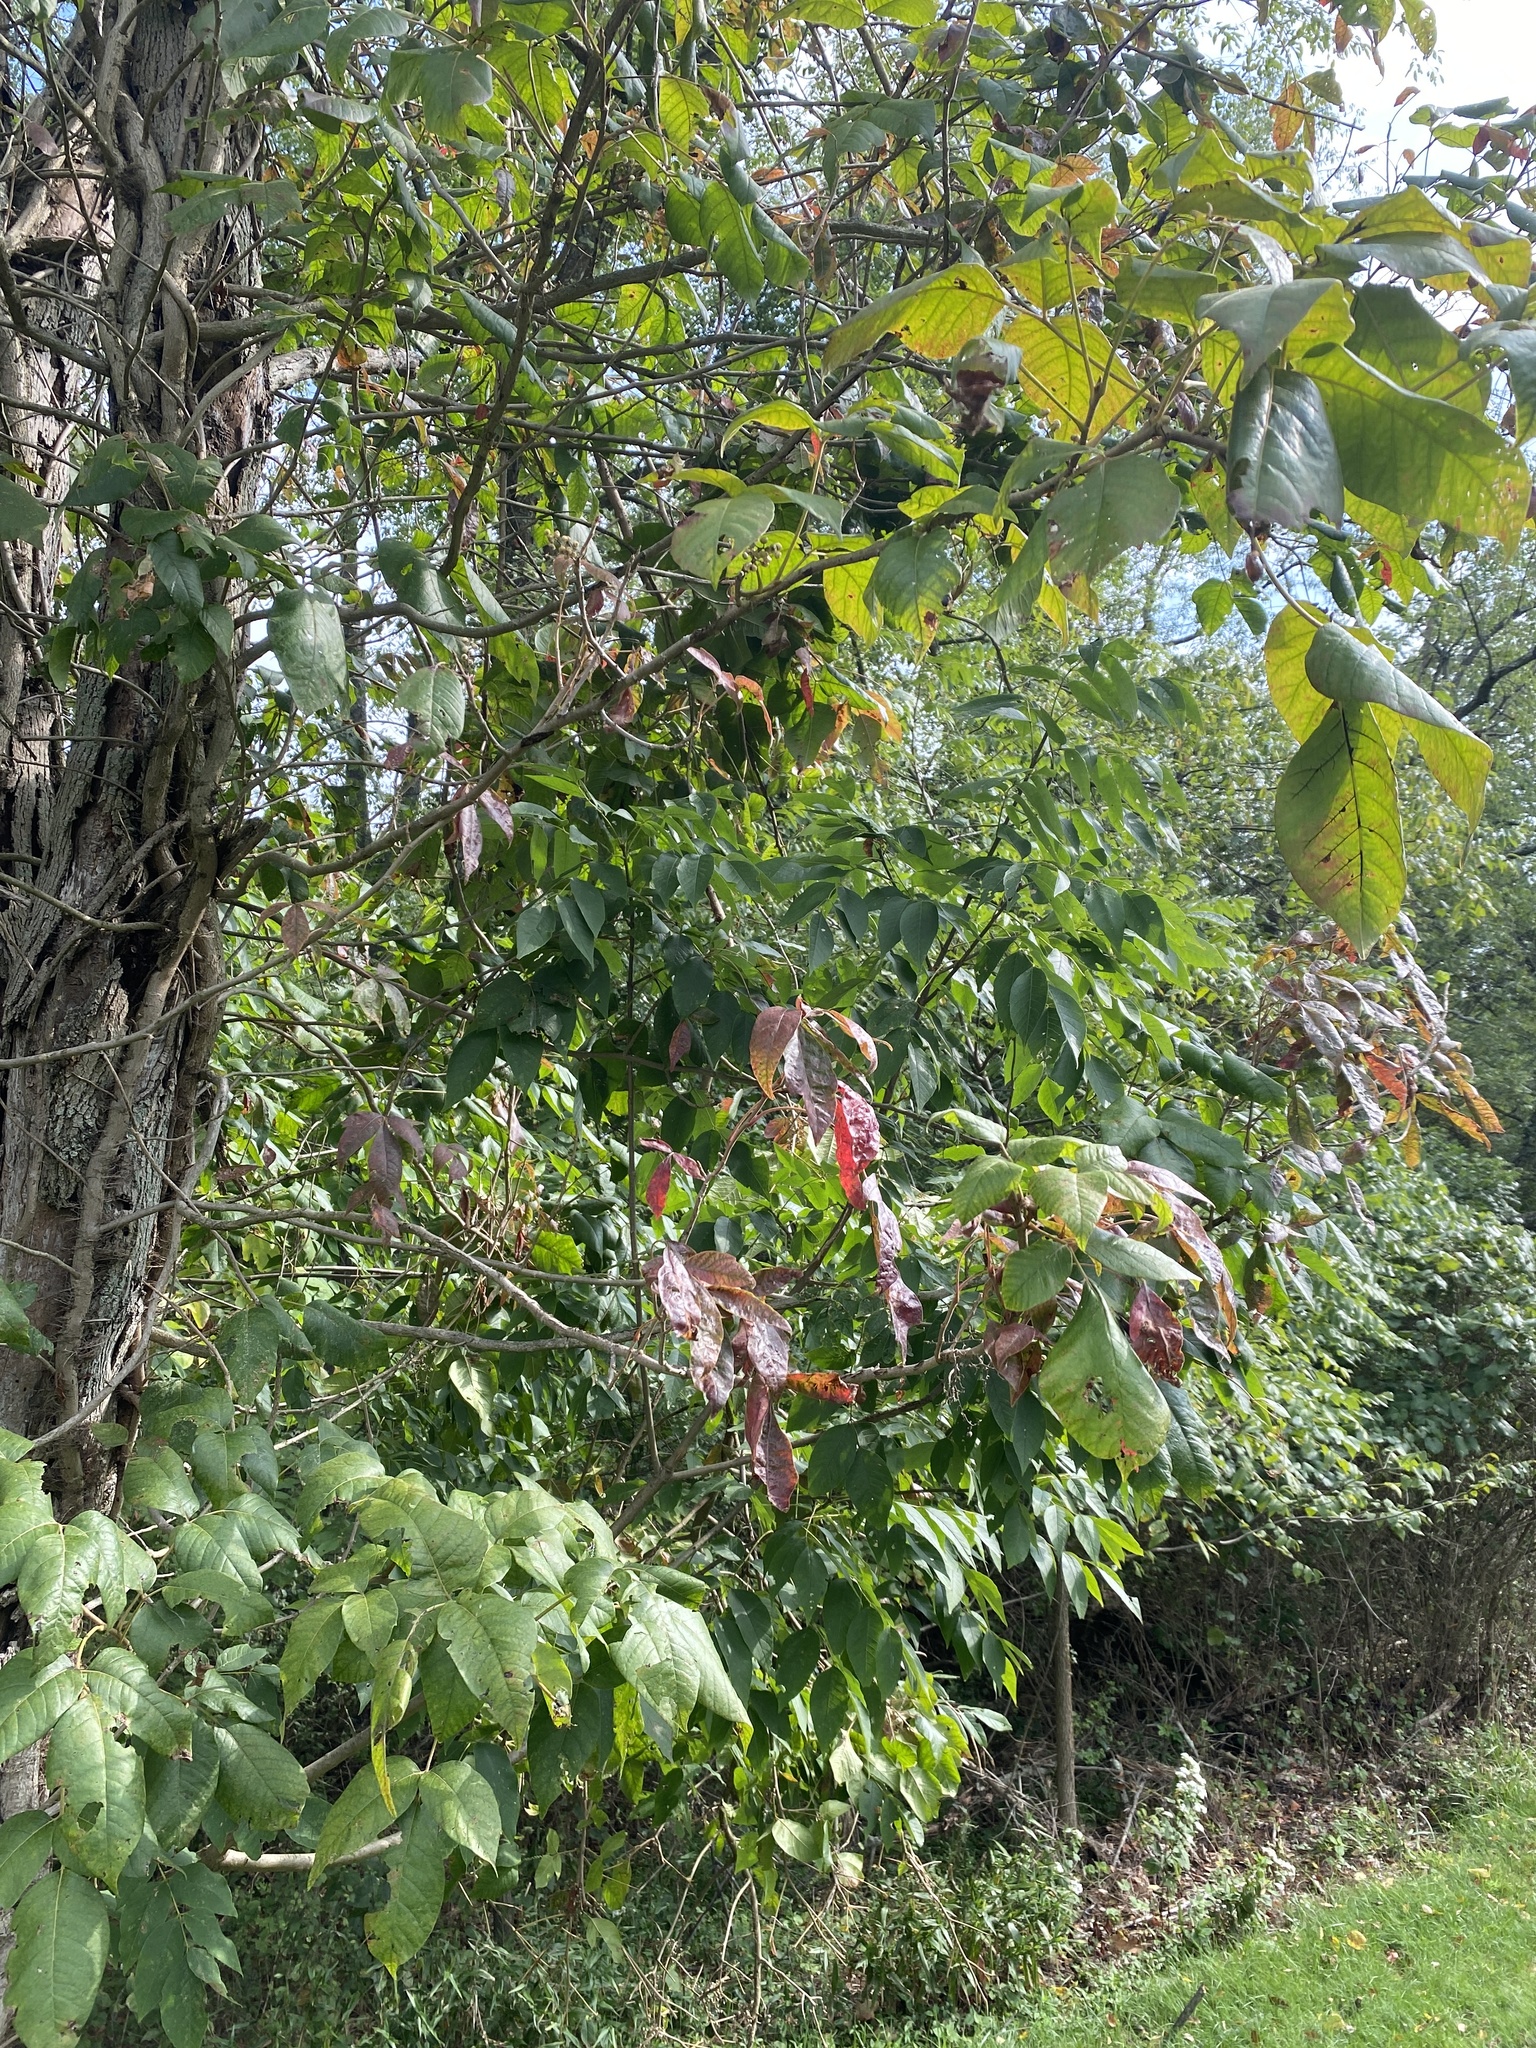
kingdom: Plantae
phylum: Tracheophyta
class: Magnoliopsida
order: Sapindales
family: Anacardiaceae
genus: Toxicodendron
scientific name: Toxicodendron radicans
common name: Poison ivy
